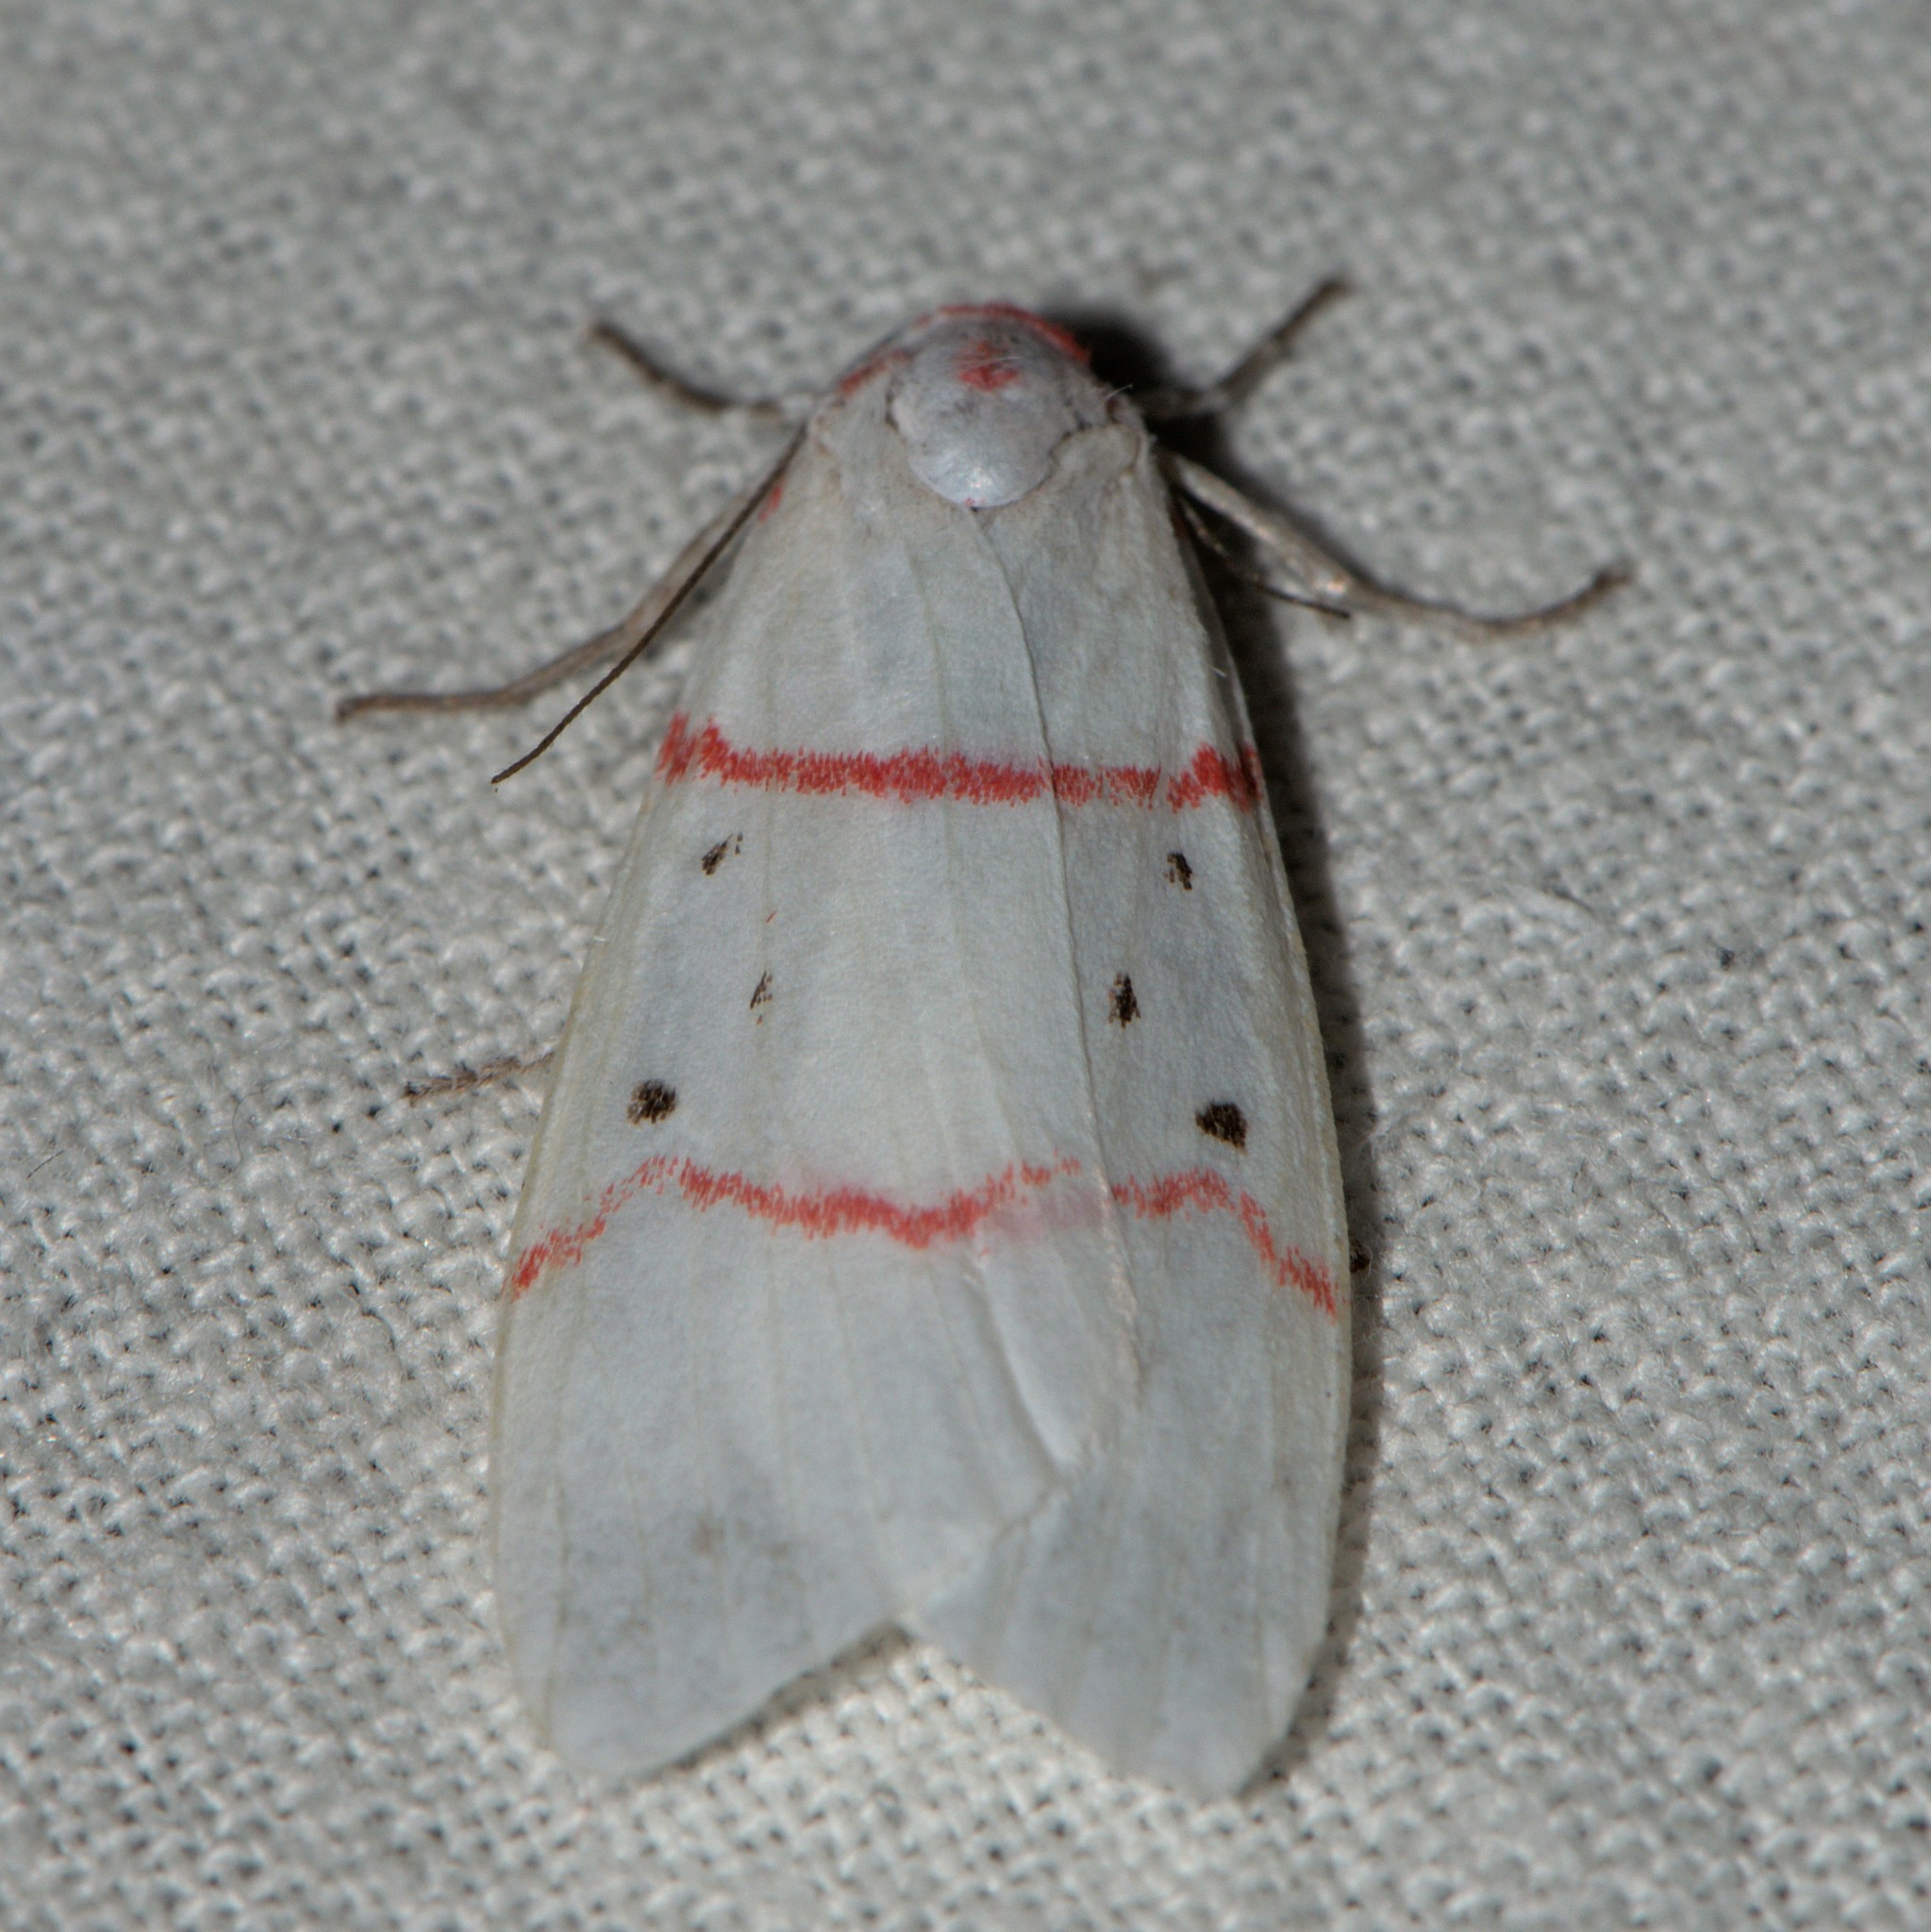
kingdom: Animalia
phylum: Arthropoda
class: Insecta
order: Lepidoptera
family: Erebidae
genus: Cyana
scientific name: Cyana adita
